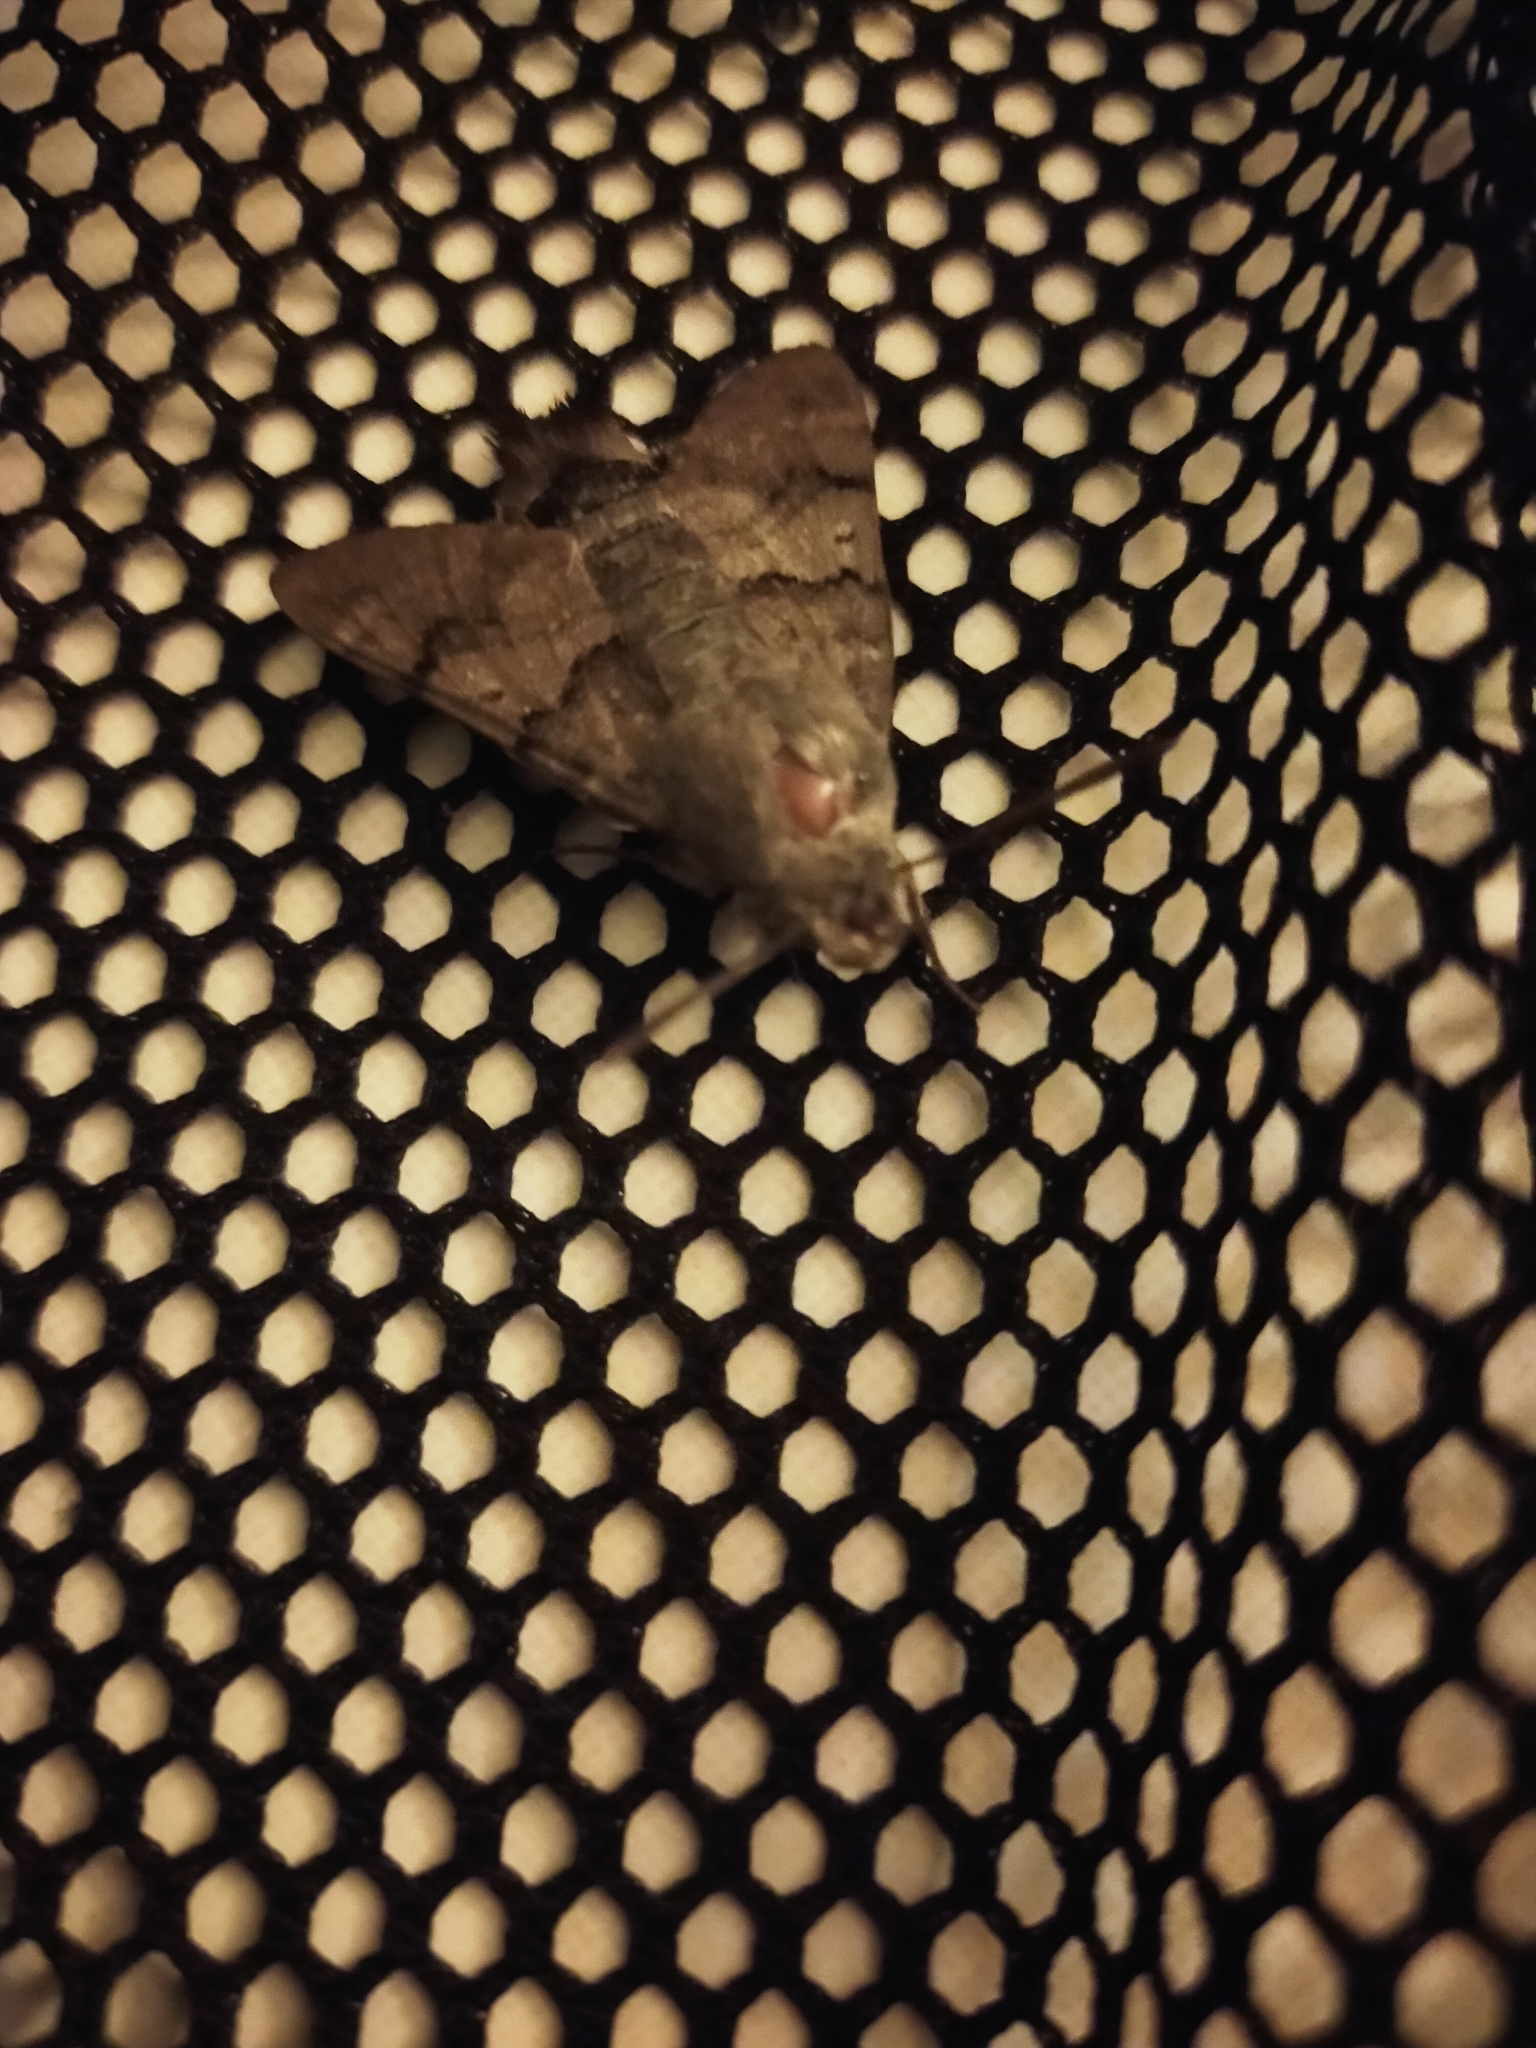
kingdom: Animalia
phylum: Arthropoda
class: Insecta
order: Lepidoptera
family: Sphingidae
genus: Macroglossum
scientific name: Macroglossum stellatarum
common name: Humming-bird hawk-moth
